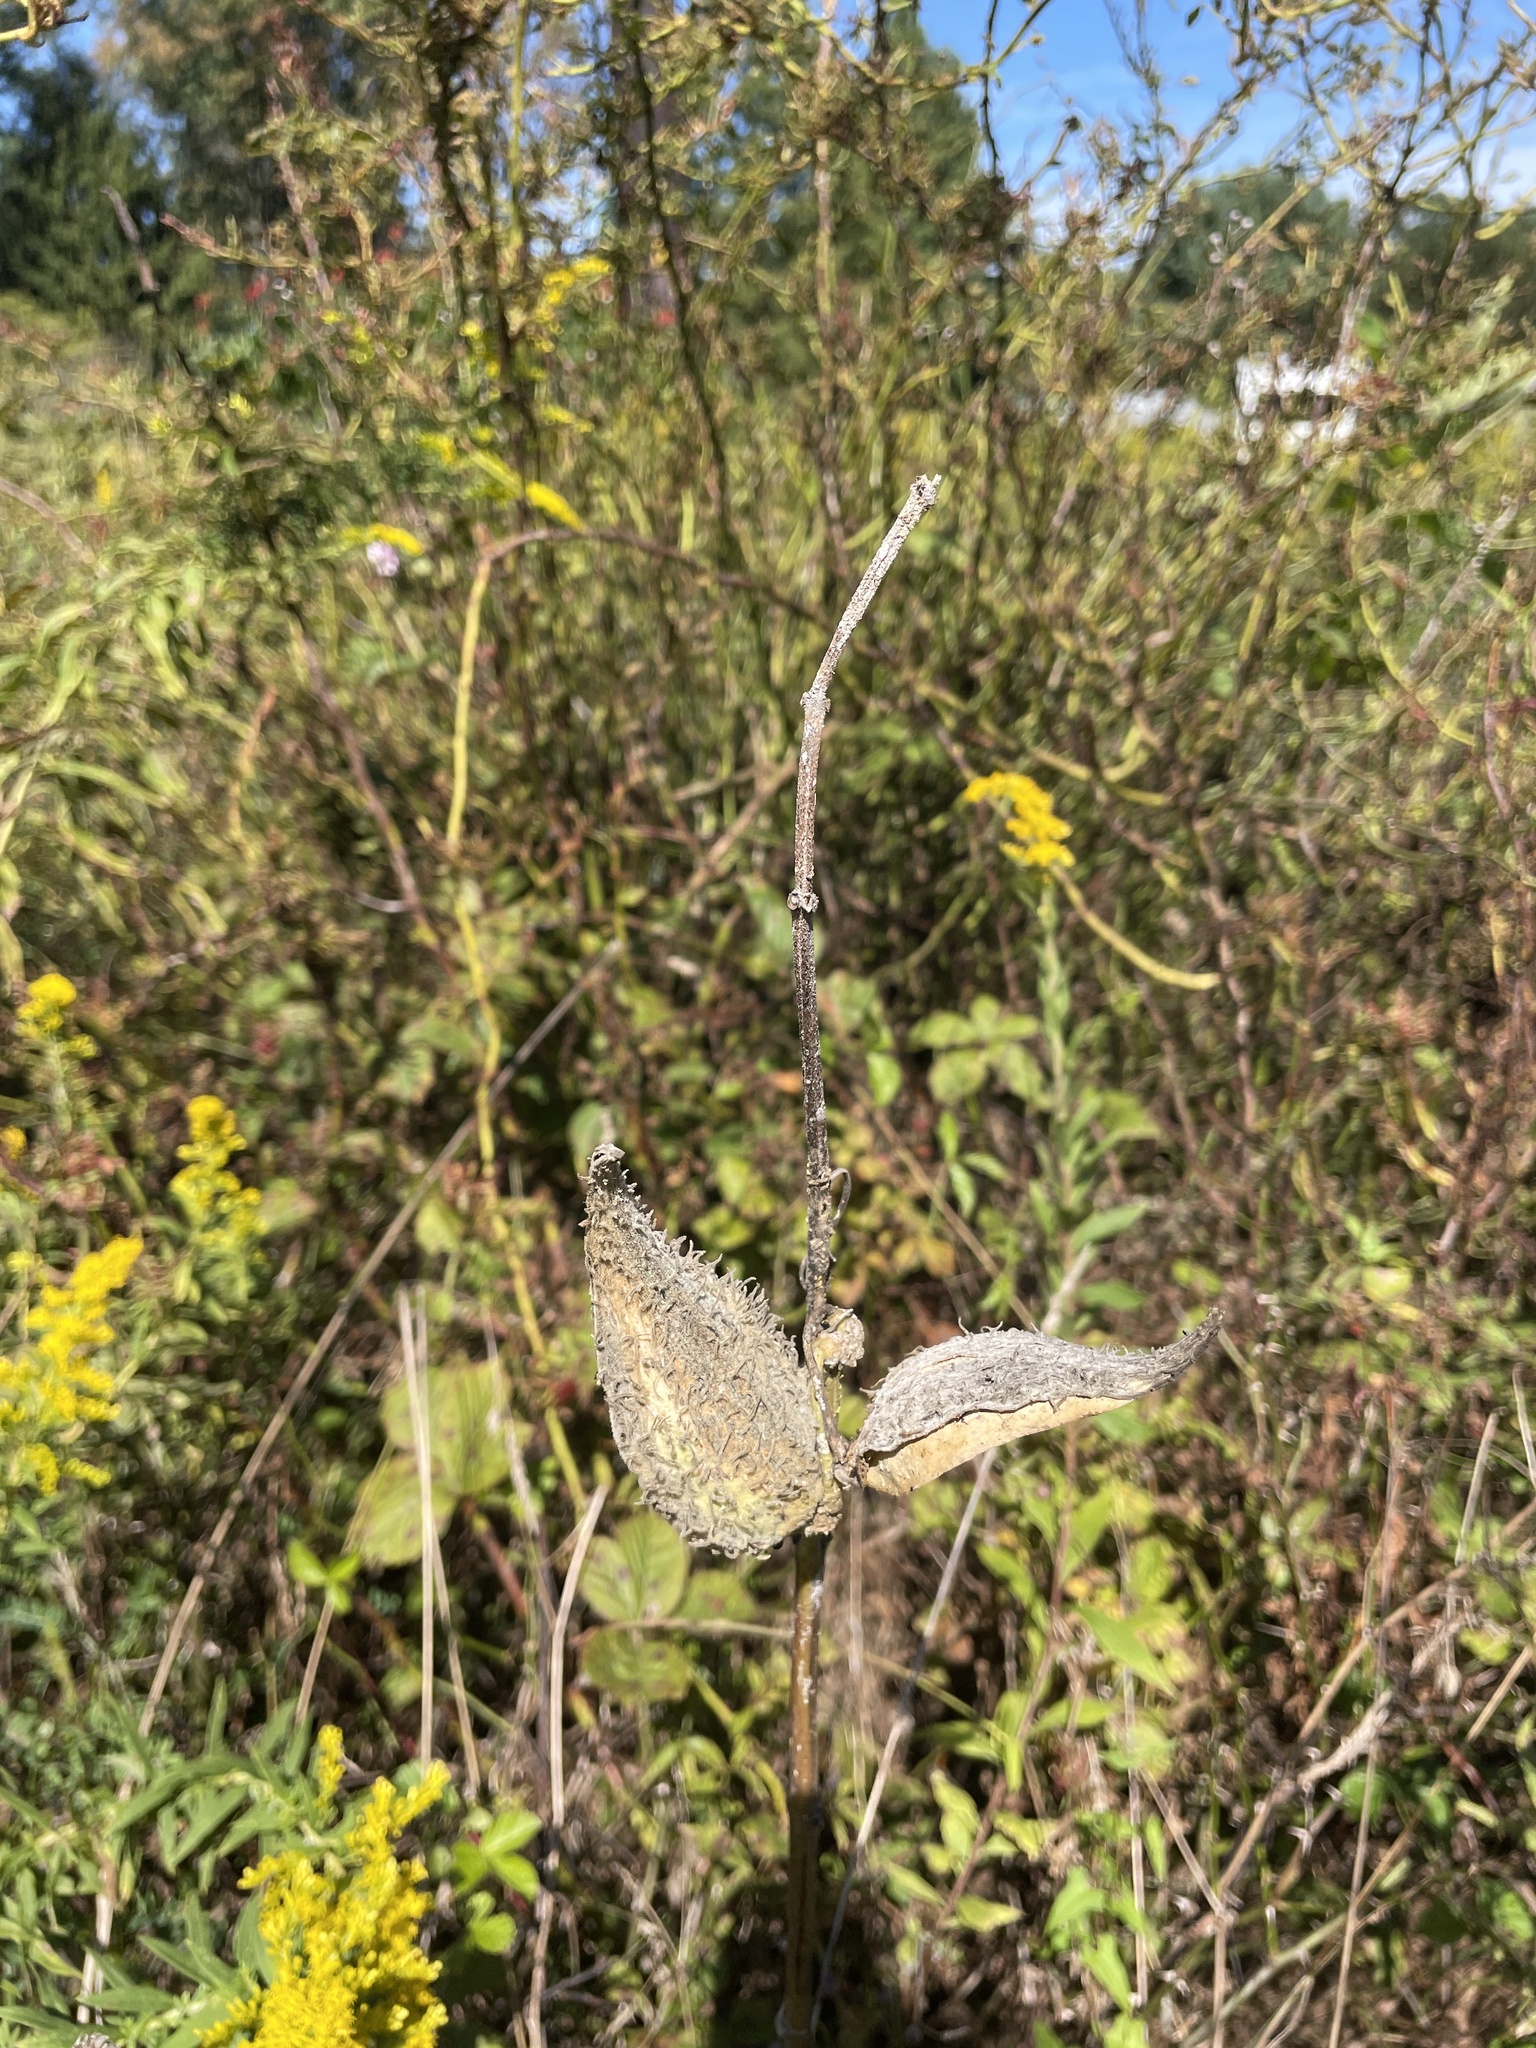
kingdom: Plantae
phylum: Tracheophyta
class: Magnoliopsida
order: Gentianales
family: Apocynaceae
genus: Asclepias
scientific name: Asclepias syriaca
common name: Common milkweed
